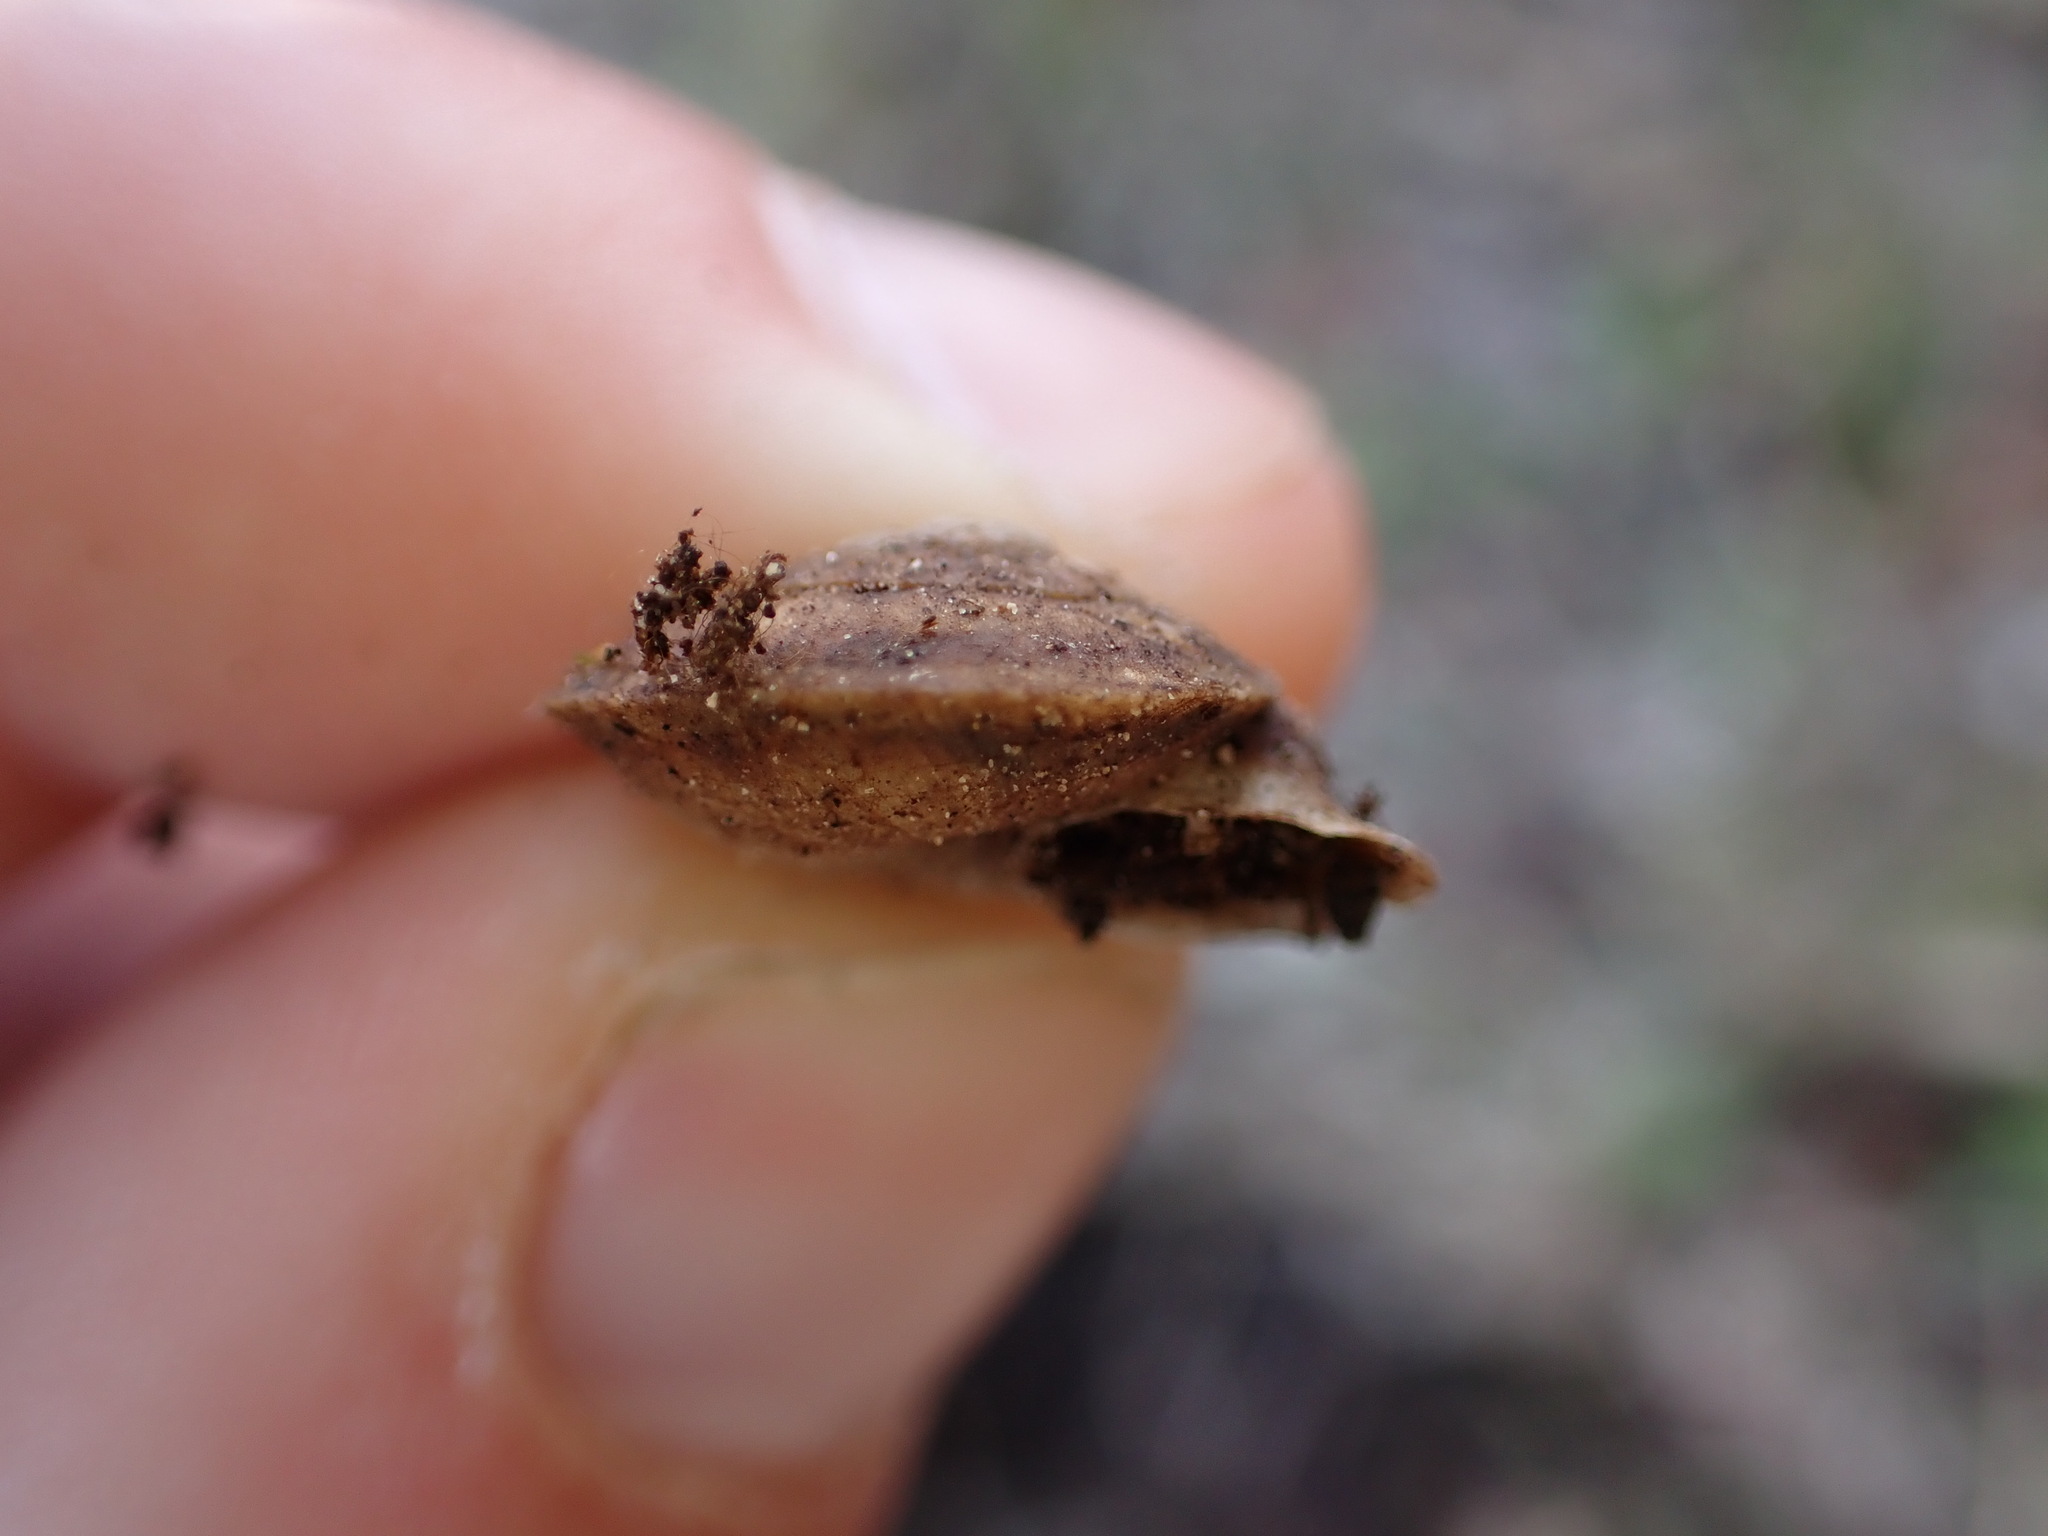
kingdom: Animalia
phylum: Mollusca
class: Gastropoda
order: Stylommatophora
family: Helicidae
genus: Helicigona
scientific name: Helicigona lapicida
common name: Lapidary snail
